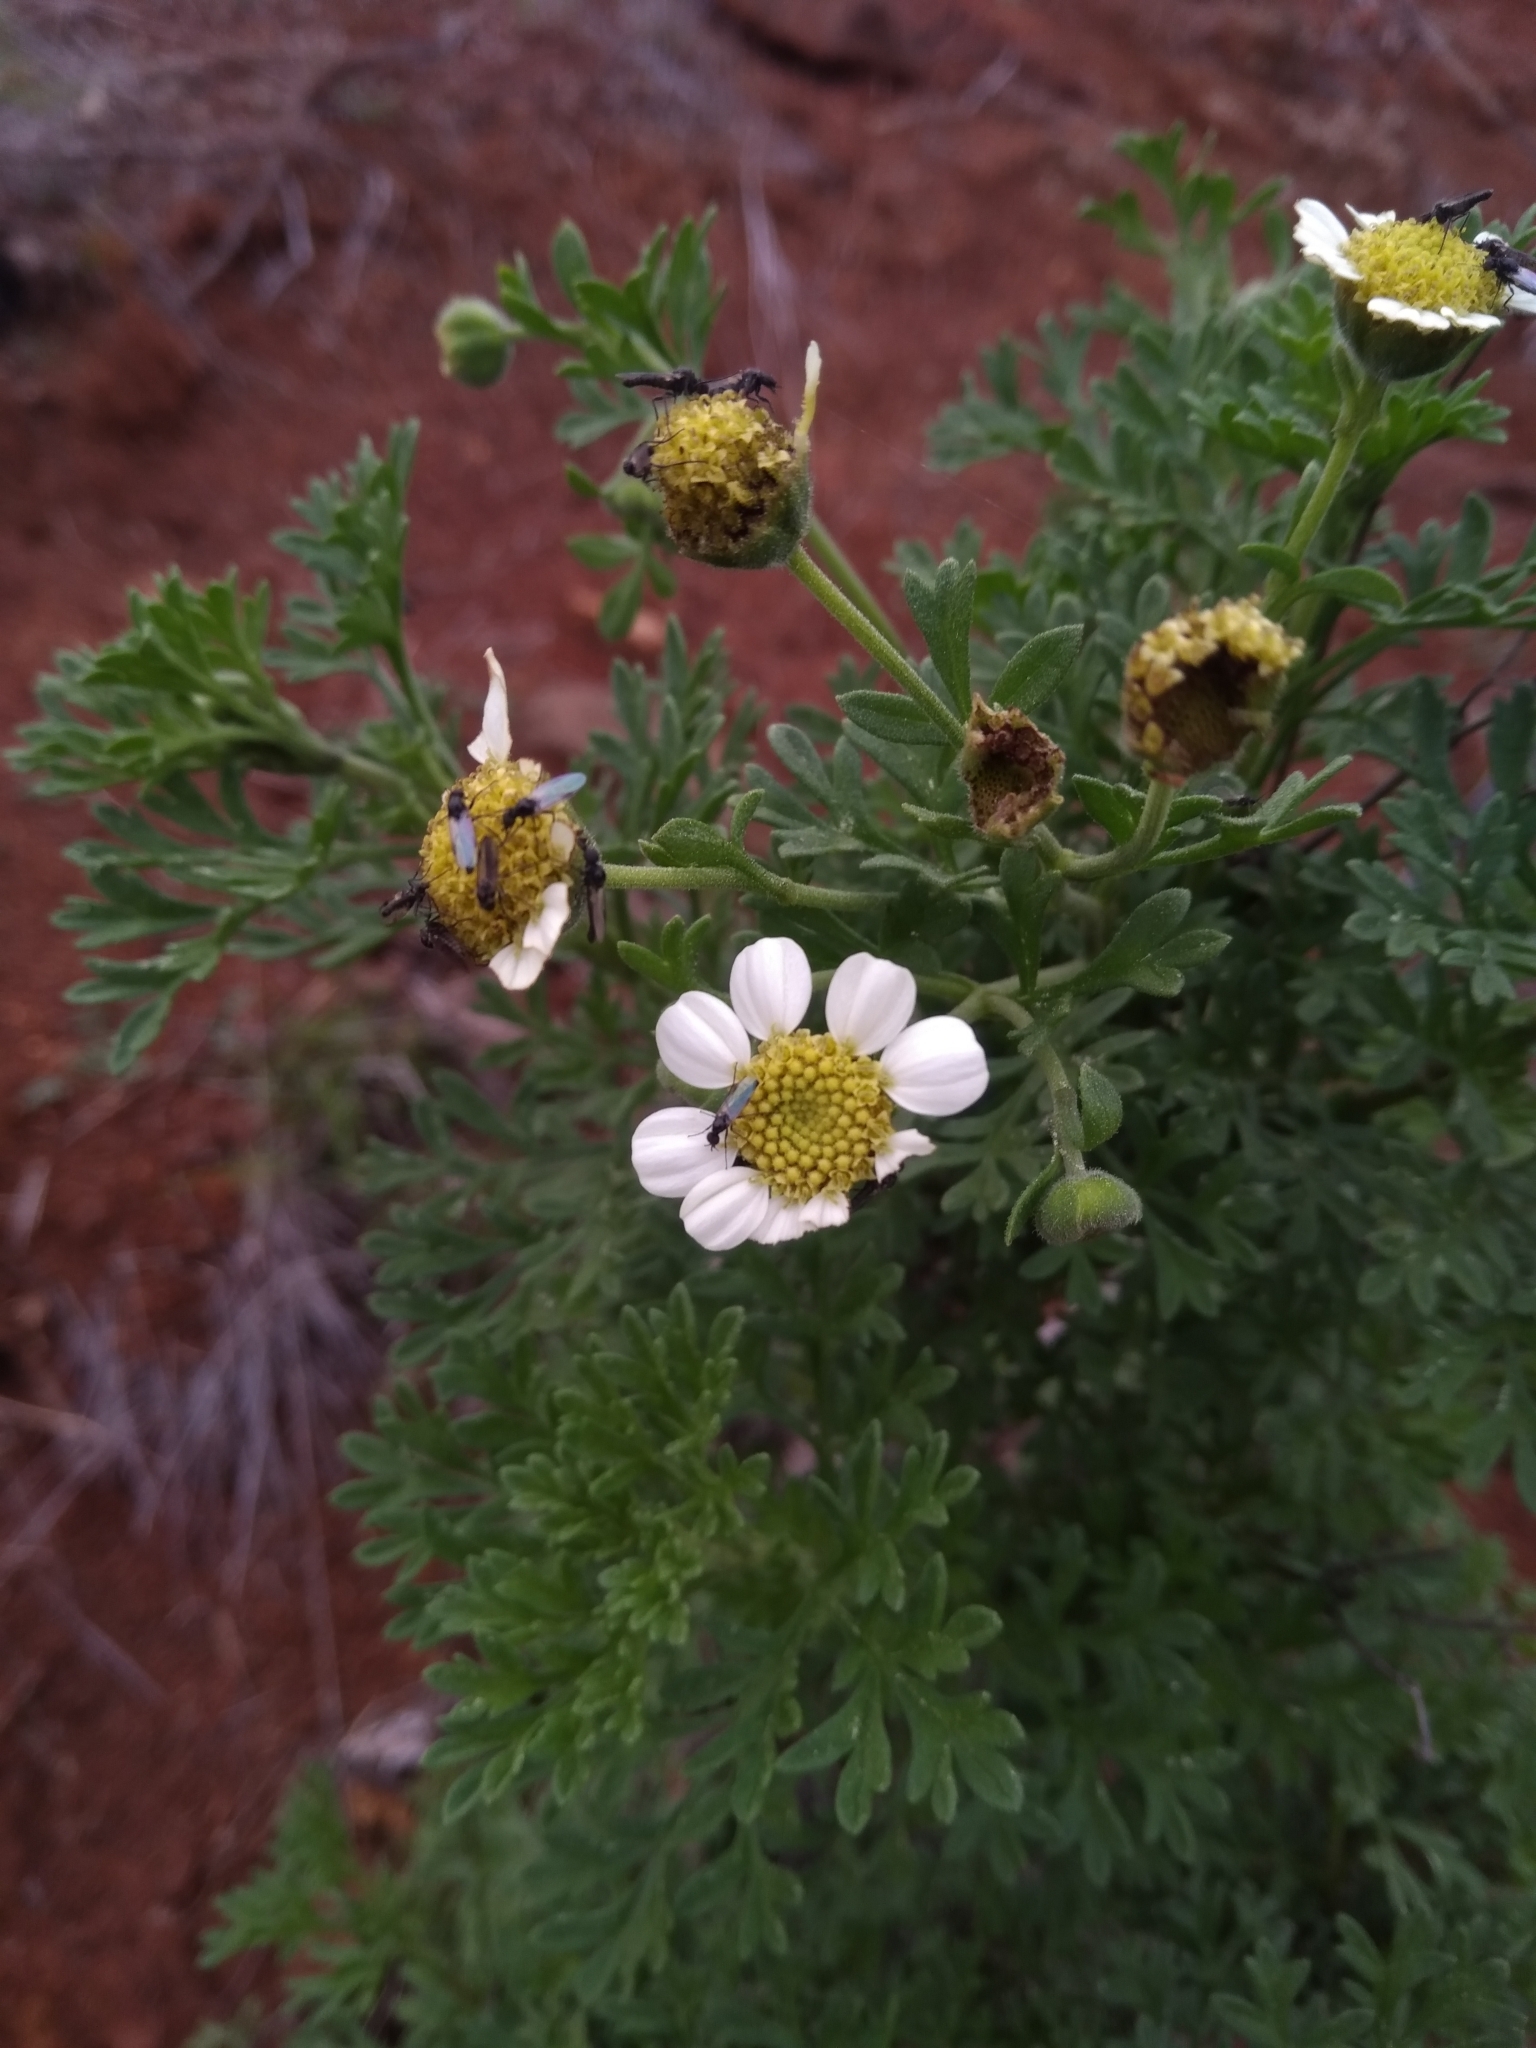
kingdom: Plantae
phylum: Tracheophyta
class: Magnoliopsida
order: Asterales
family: Asteraceae
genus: Bahia
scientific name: Bahia ambrosioides
